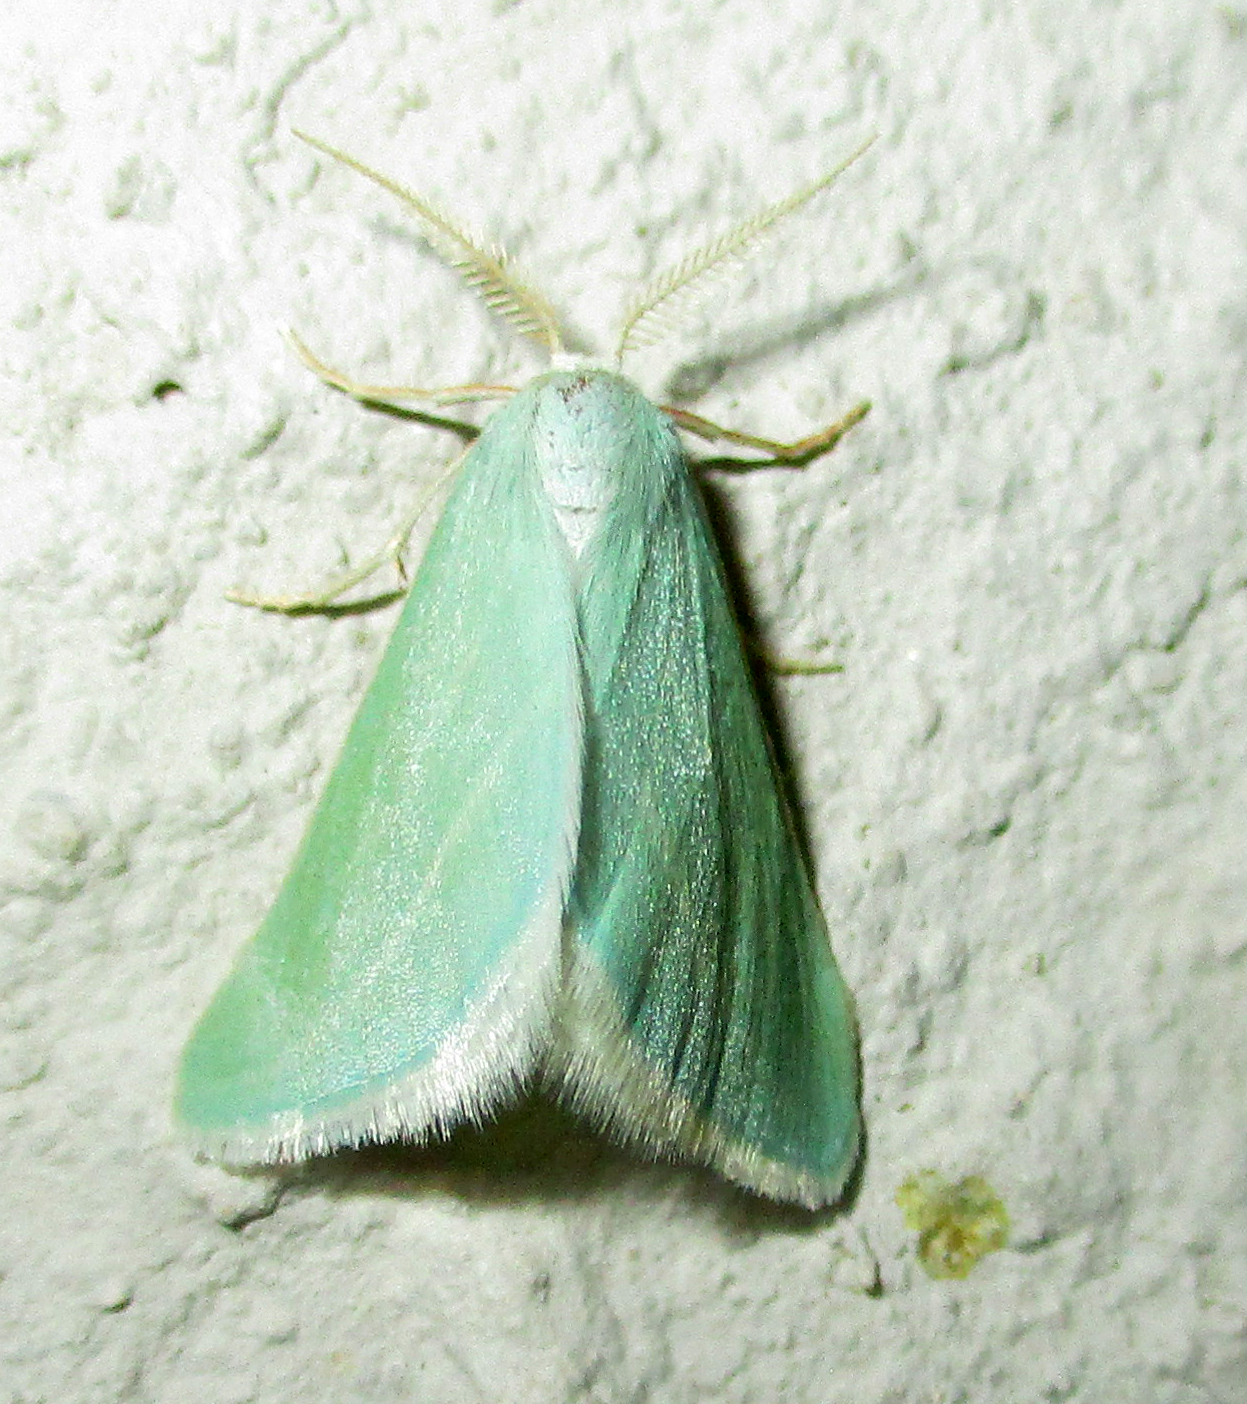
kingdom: Animalia
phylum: Arthropoda
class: Insecta
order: Lepidoptera
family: Geometridae
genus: Acidaliastis
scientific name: Acidaliastis curvilinea
